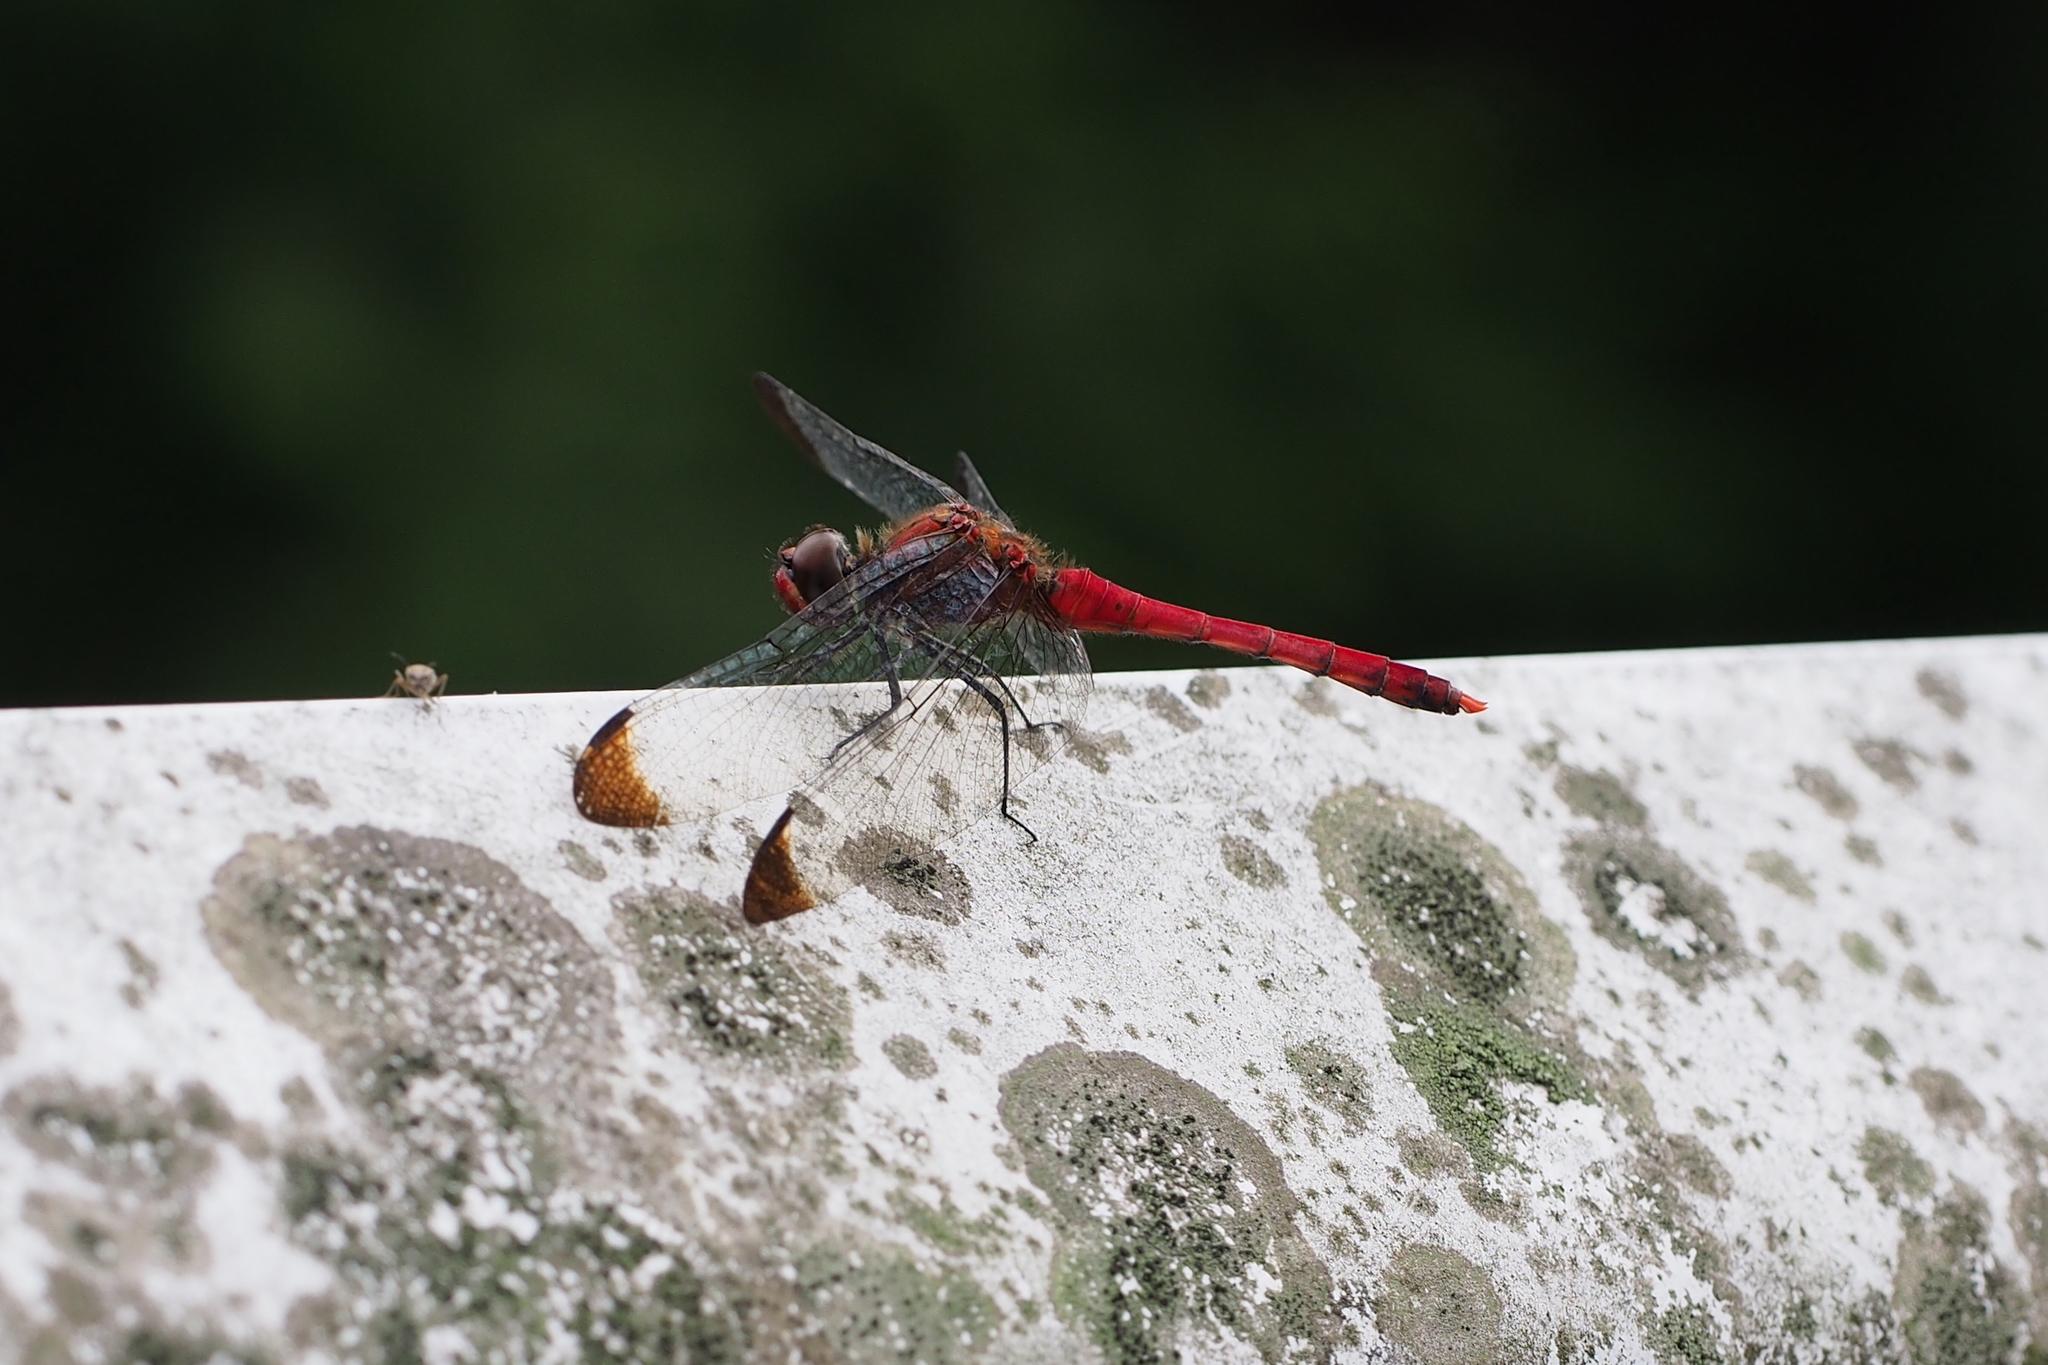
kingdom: Animalia
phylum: Arthropoda
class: Insecta
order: Odonata
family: Libellulidae
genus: Sympetrum
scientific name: Sympetrum baccha
